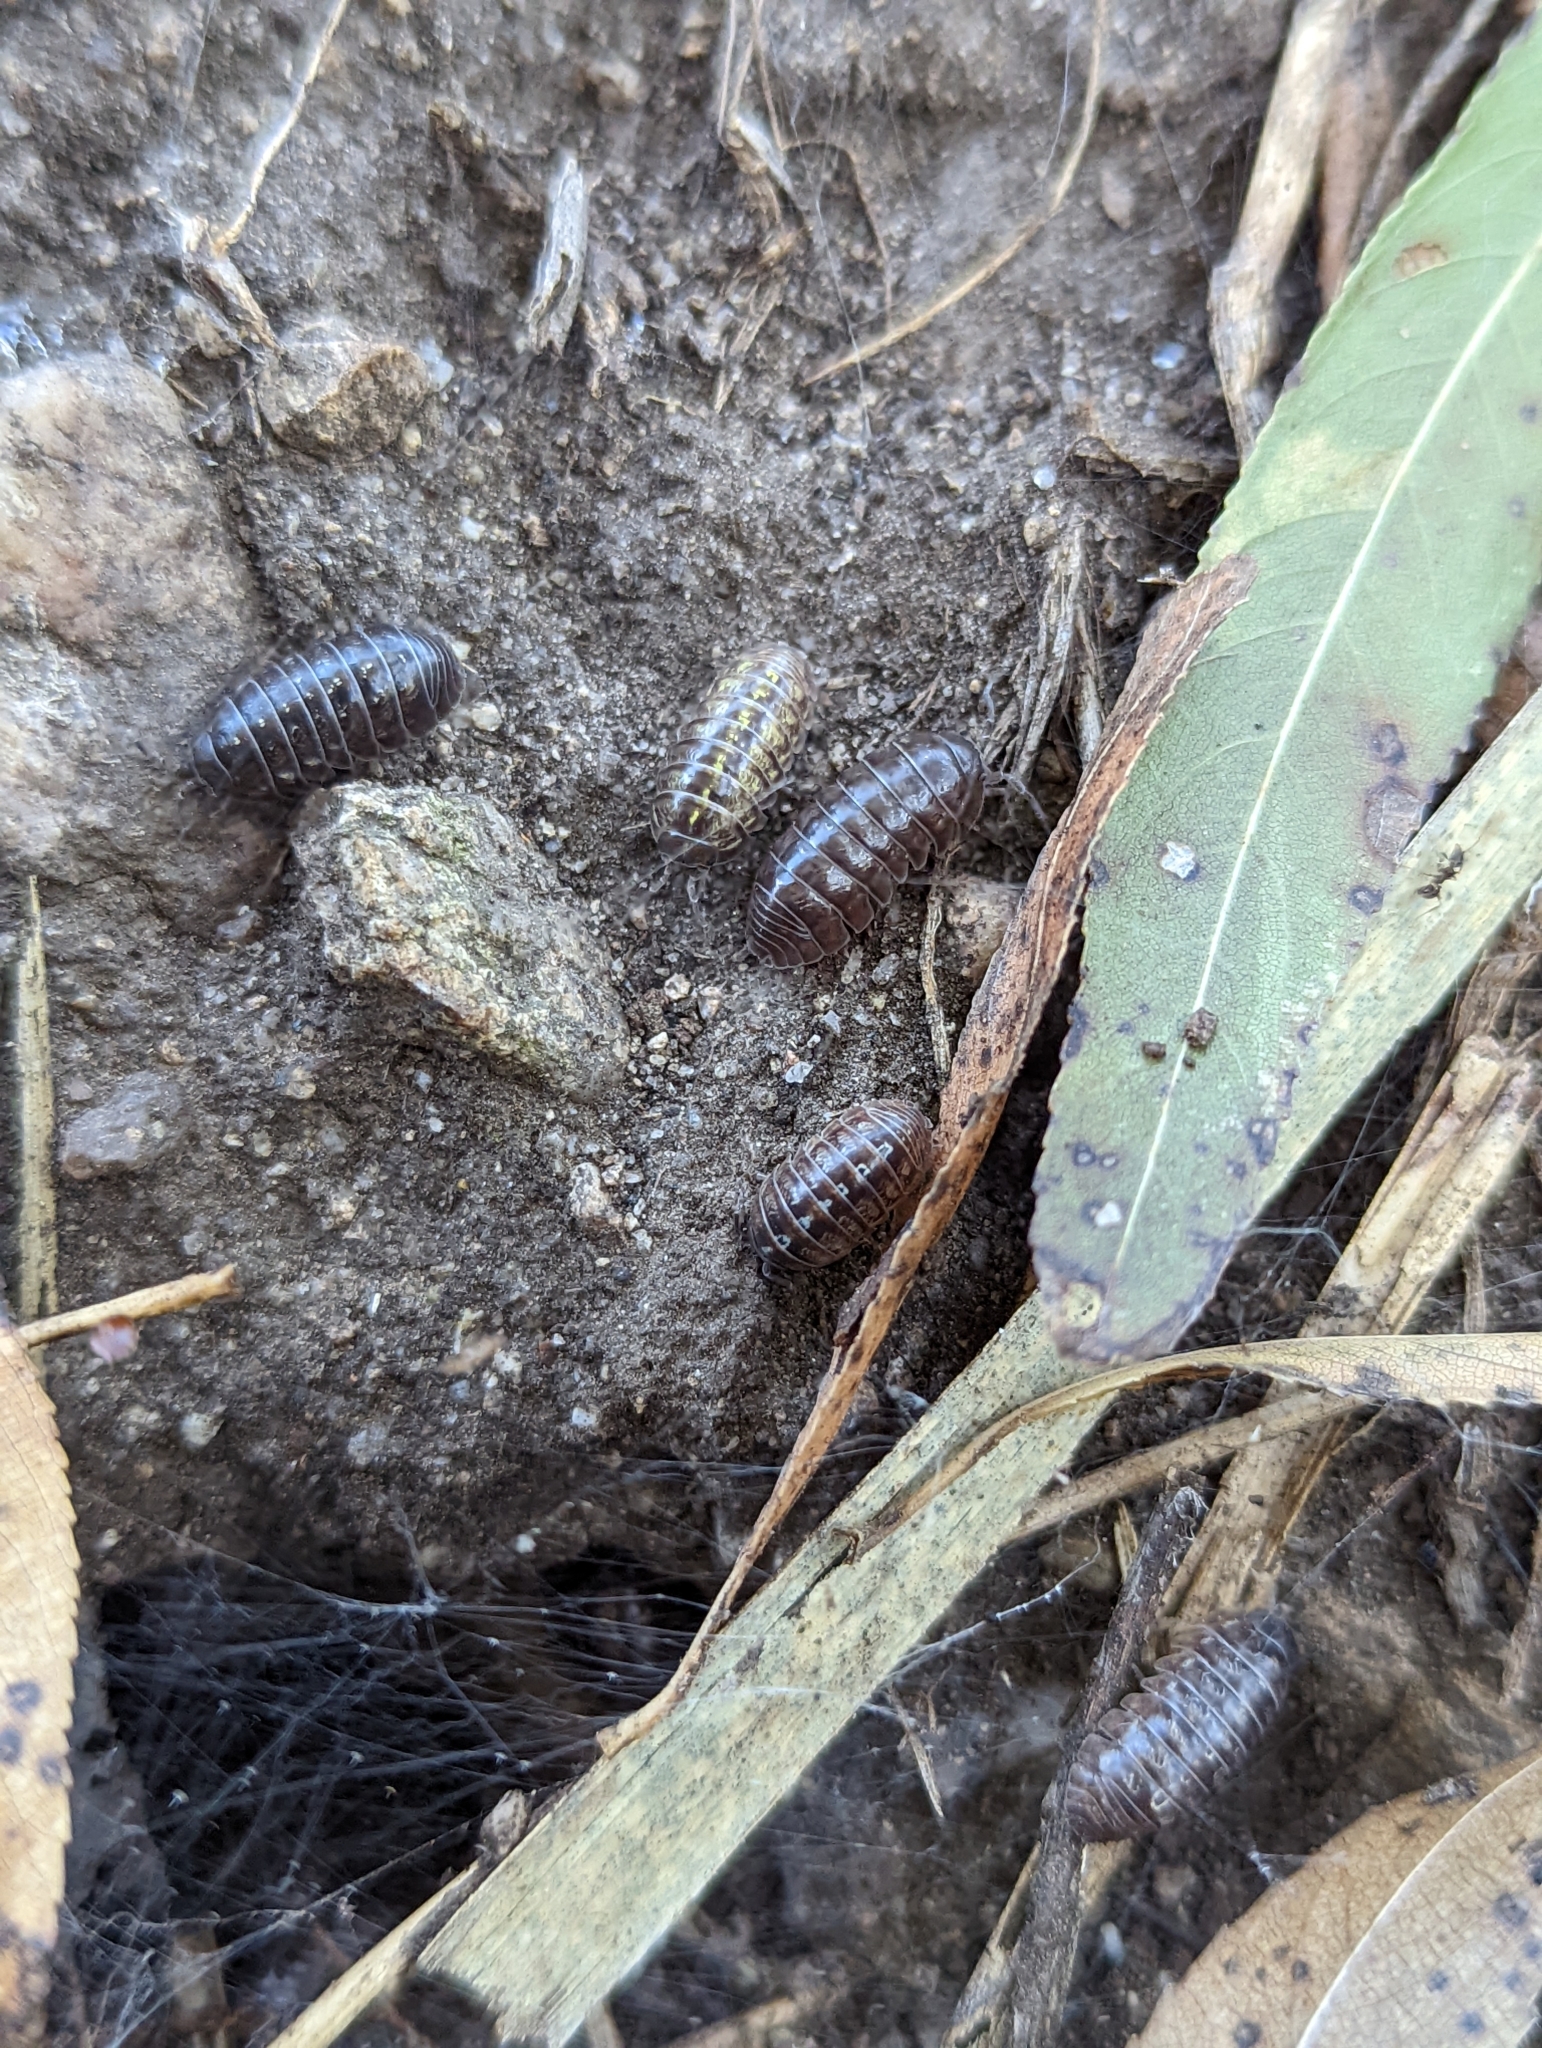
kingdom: Animalia
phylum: Arthropoda
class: Malacostraca
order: Isopoda
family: Armadillidiidae
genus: Armadillidium
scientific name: Armadillidium vulgare
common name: Common pill woodlouse
